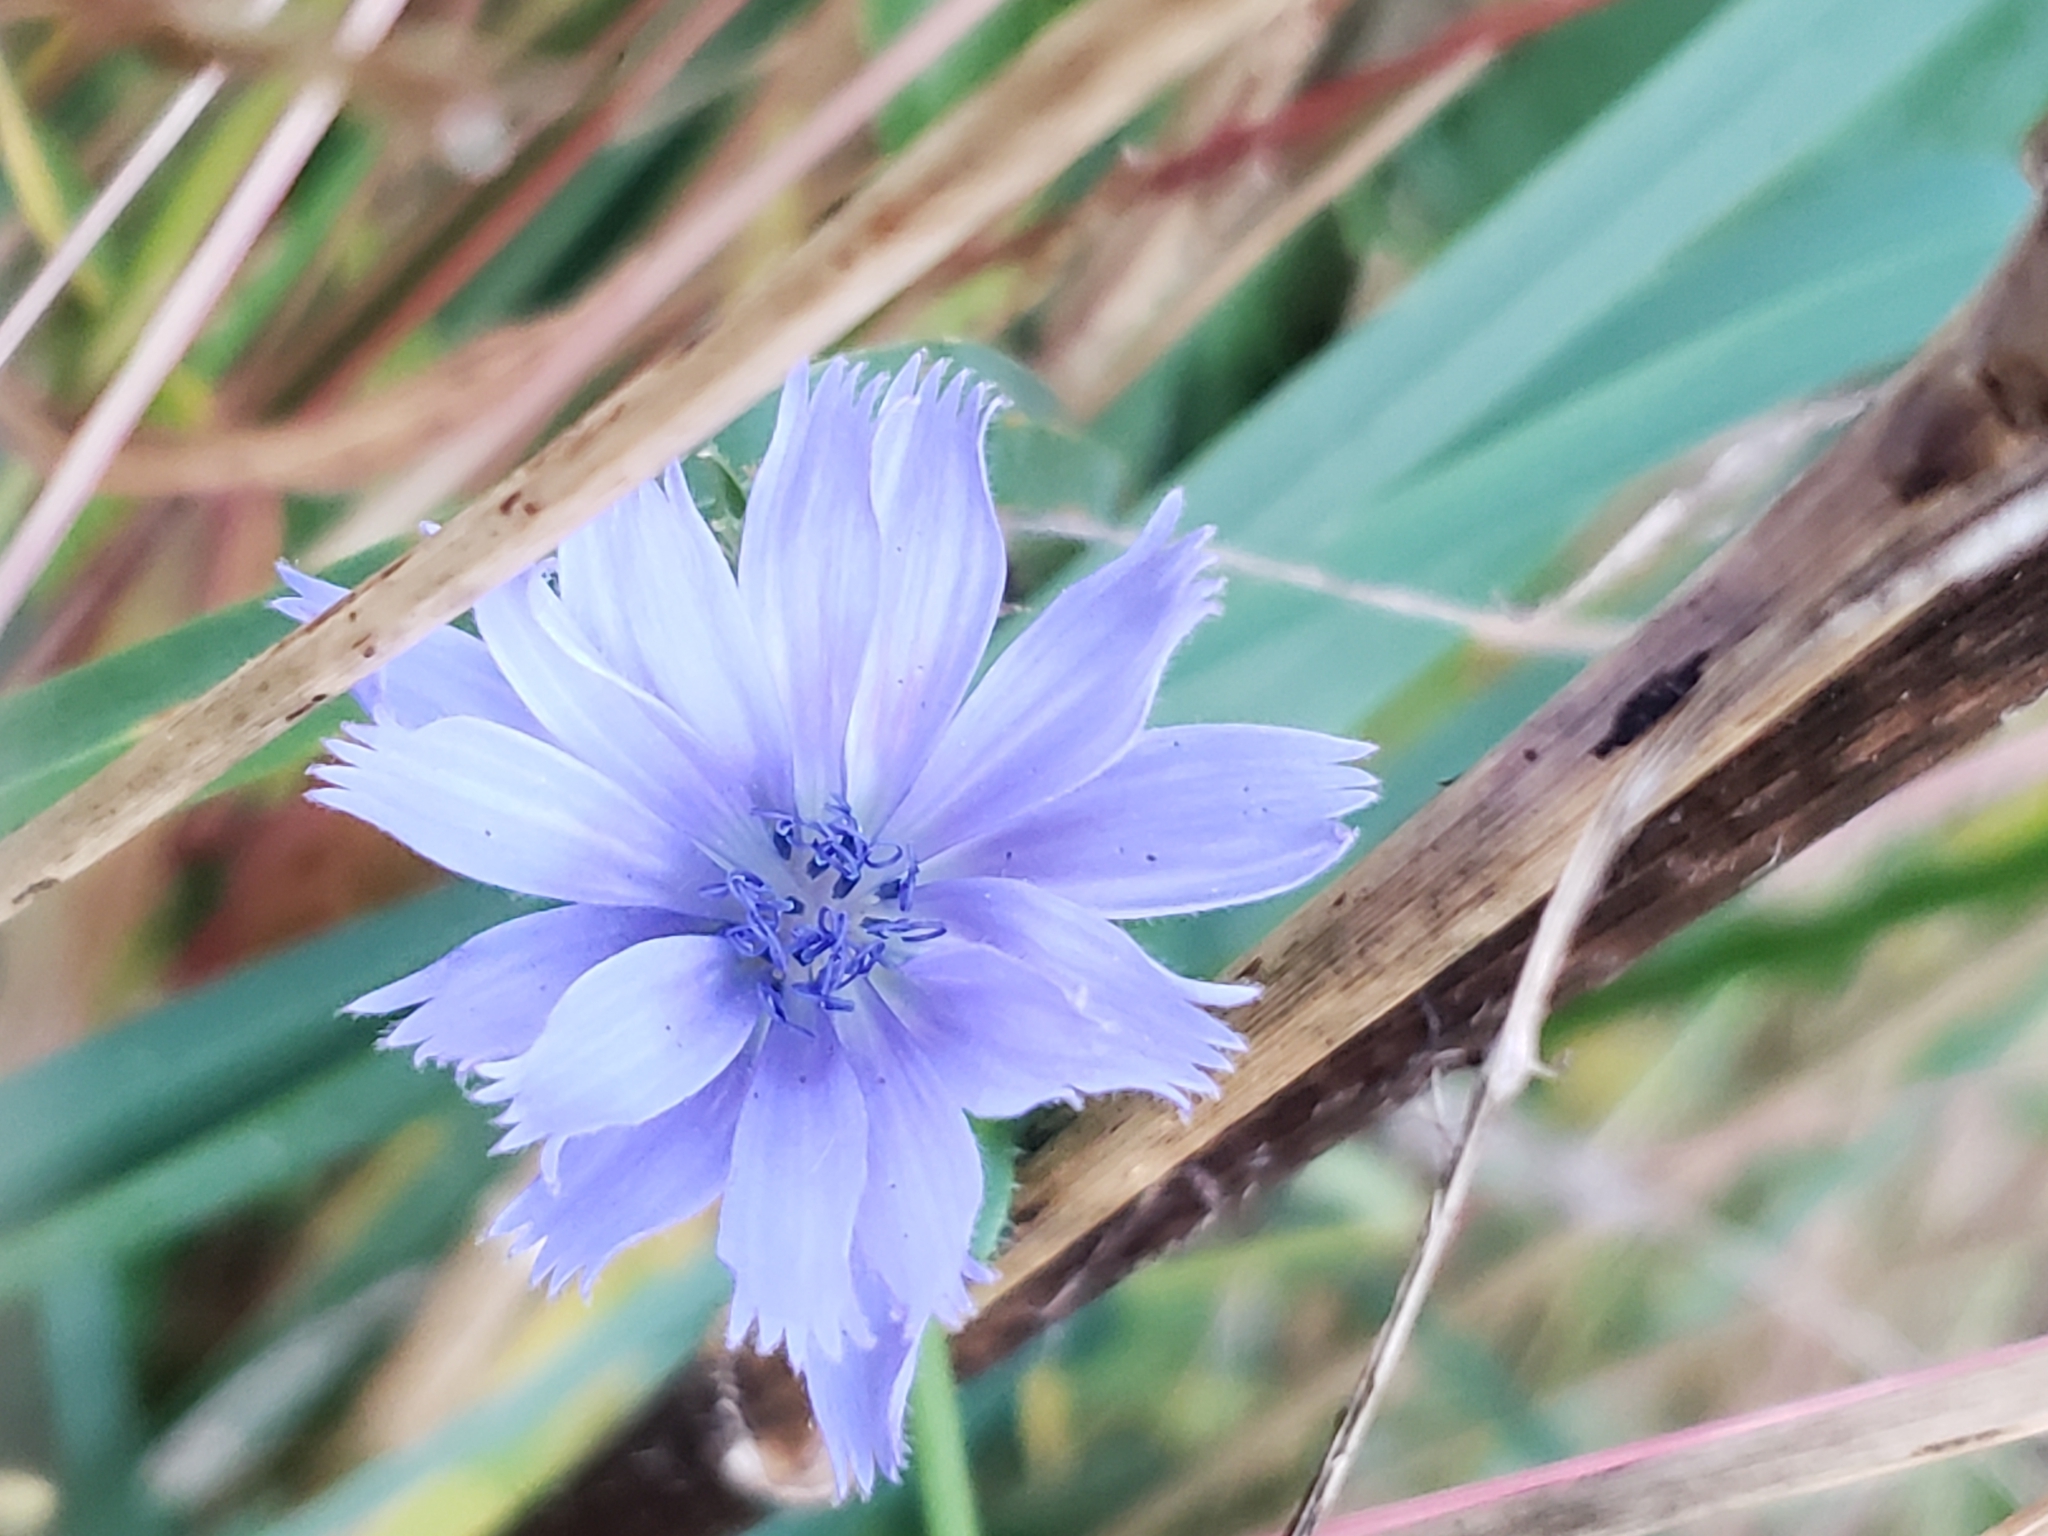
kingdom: Plantae
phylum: Tracheophyta
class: Magnoliopsida
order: Asterales
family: Asteraceae
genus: Cichorium
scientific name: Cichorium intybus
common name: Chicory
